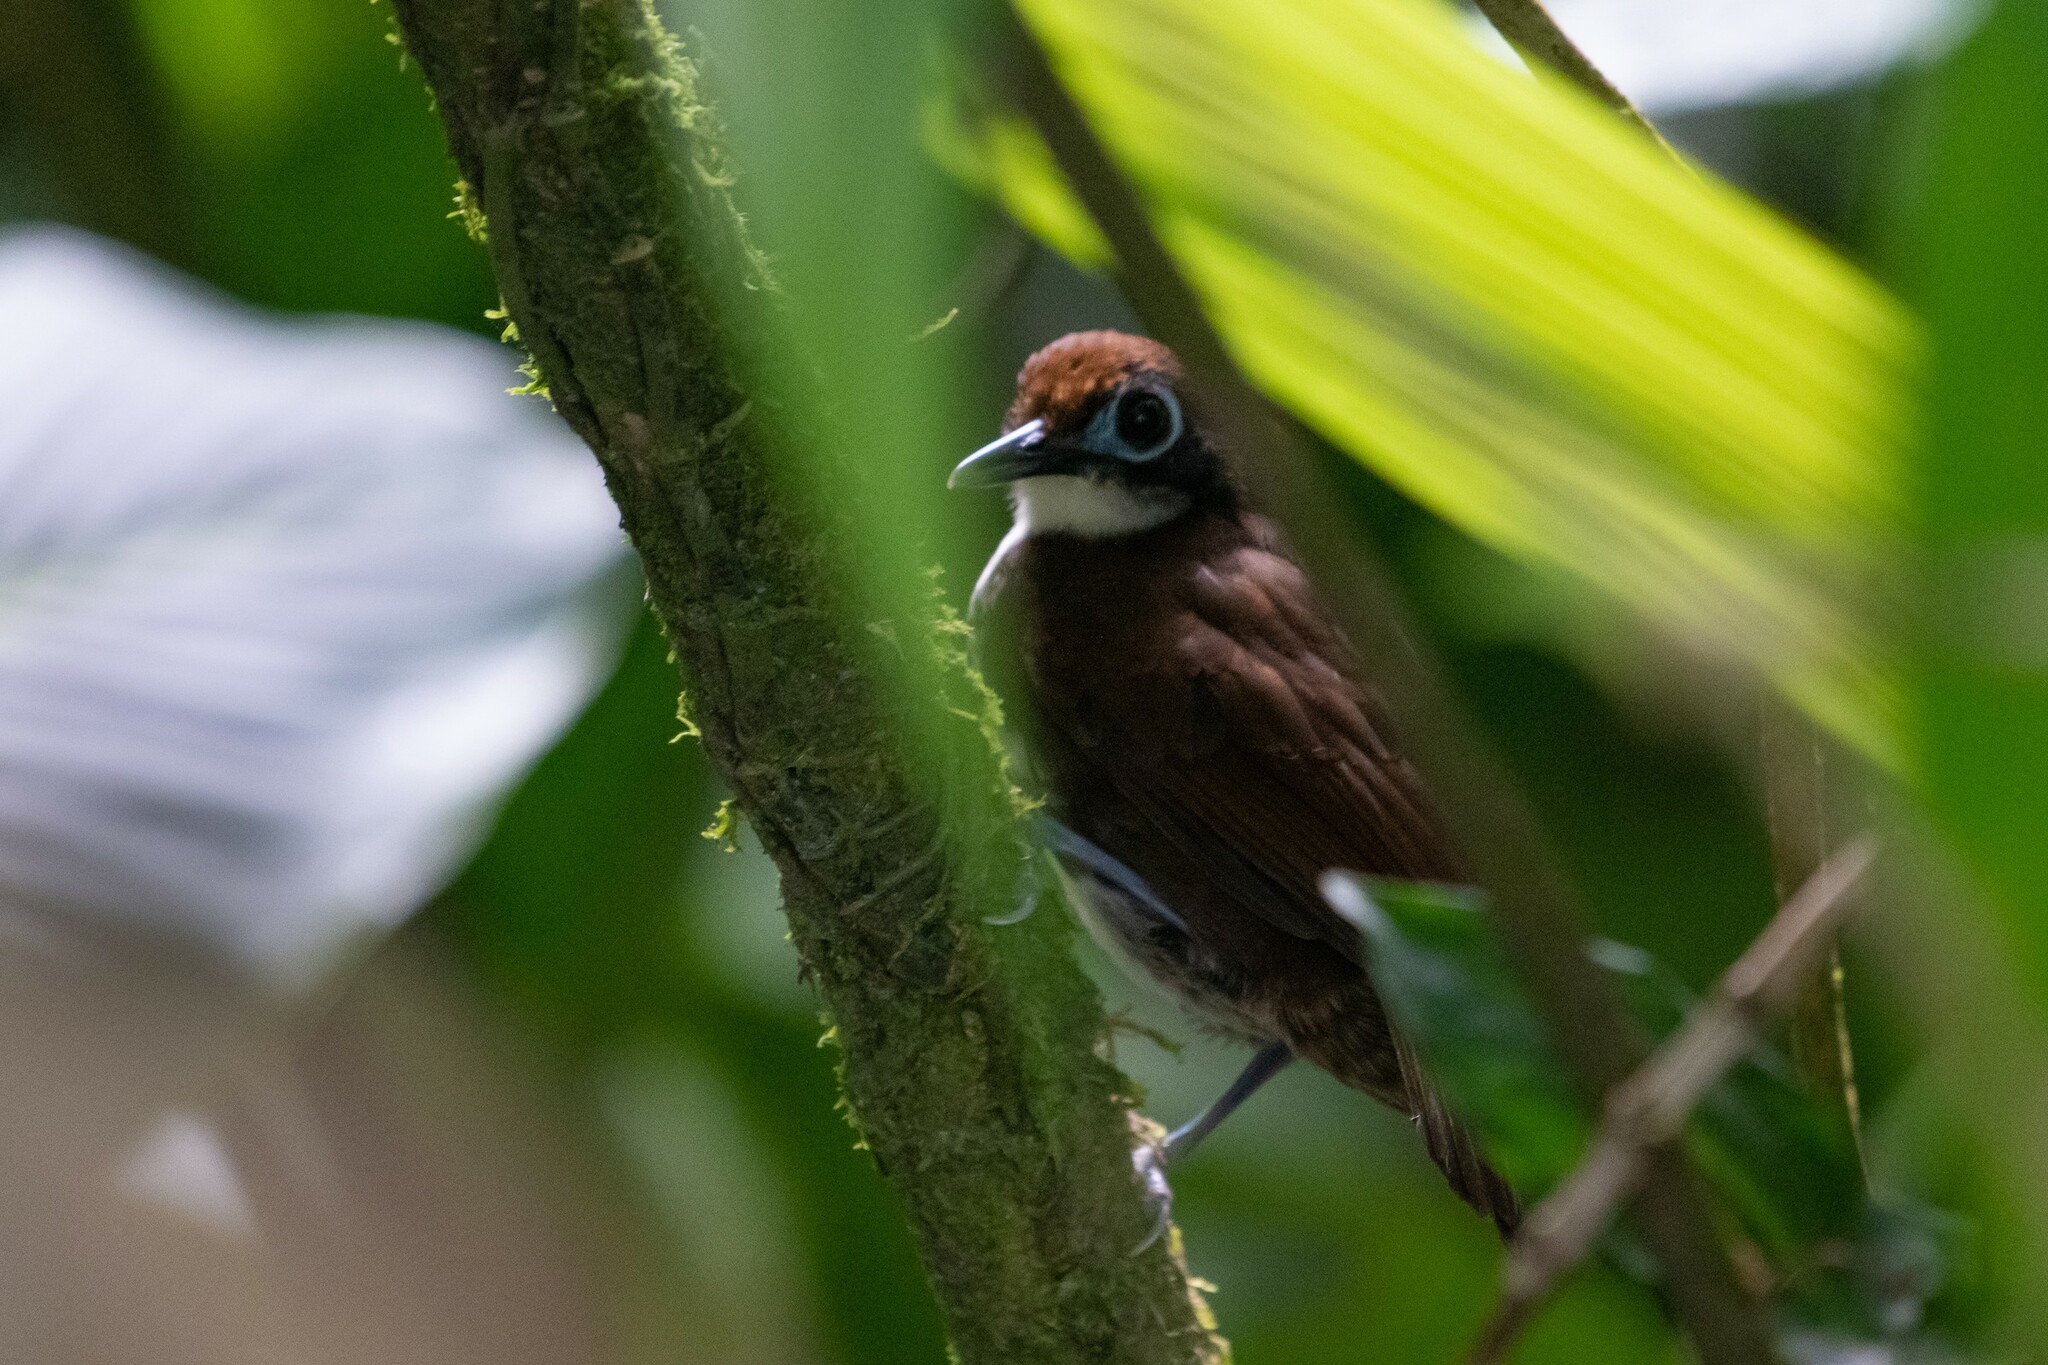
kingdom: Animalia
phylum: Chordata
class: Aves
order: Passeriformes
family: Thamnophilidae
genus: Gymnopithys
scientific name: Gymnopithys leucaspis
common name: White-cheeked antbird
